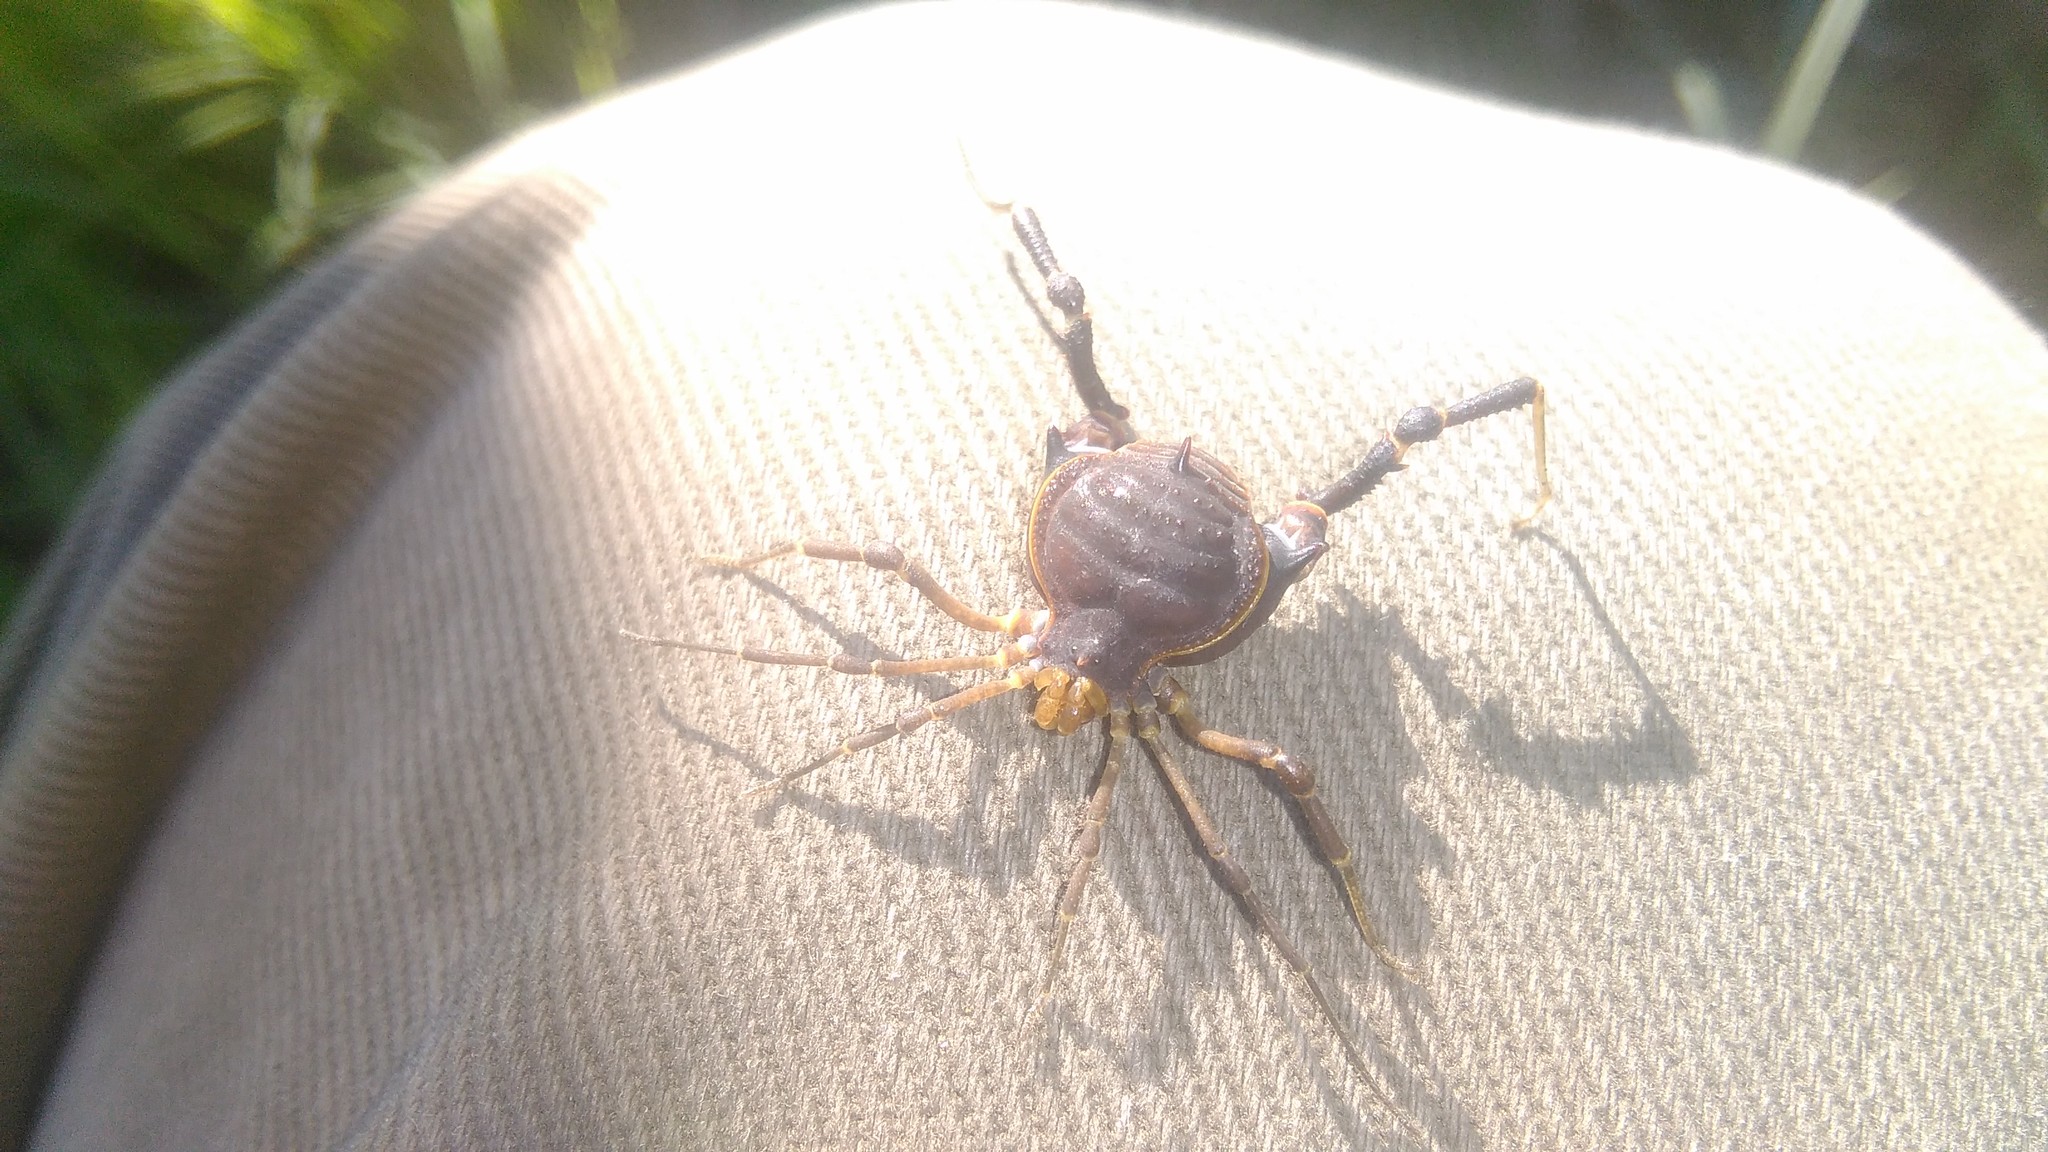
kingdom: Animalia
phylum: Arthropoda
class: Arachnida
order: Opiliones
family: Gonyleptidae
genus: Acanthopachylus
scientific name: Acanthopachylus robustus
